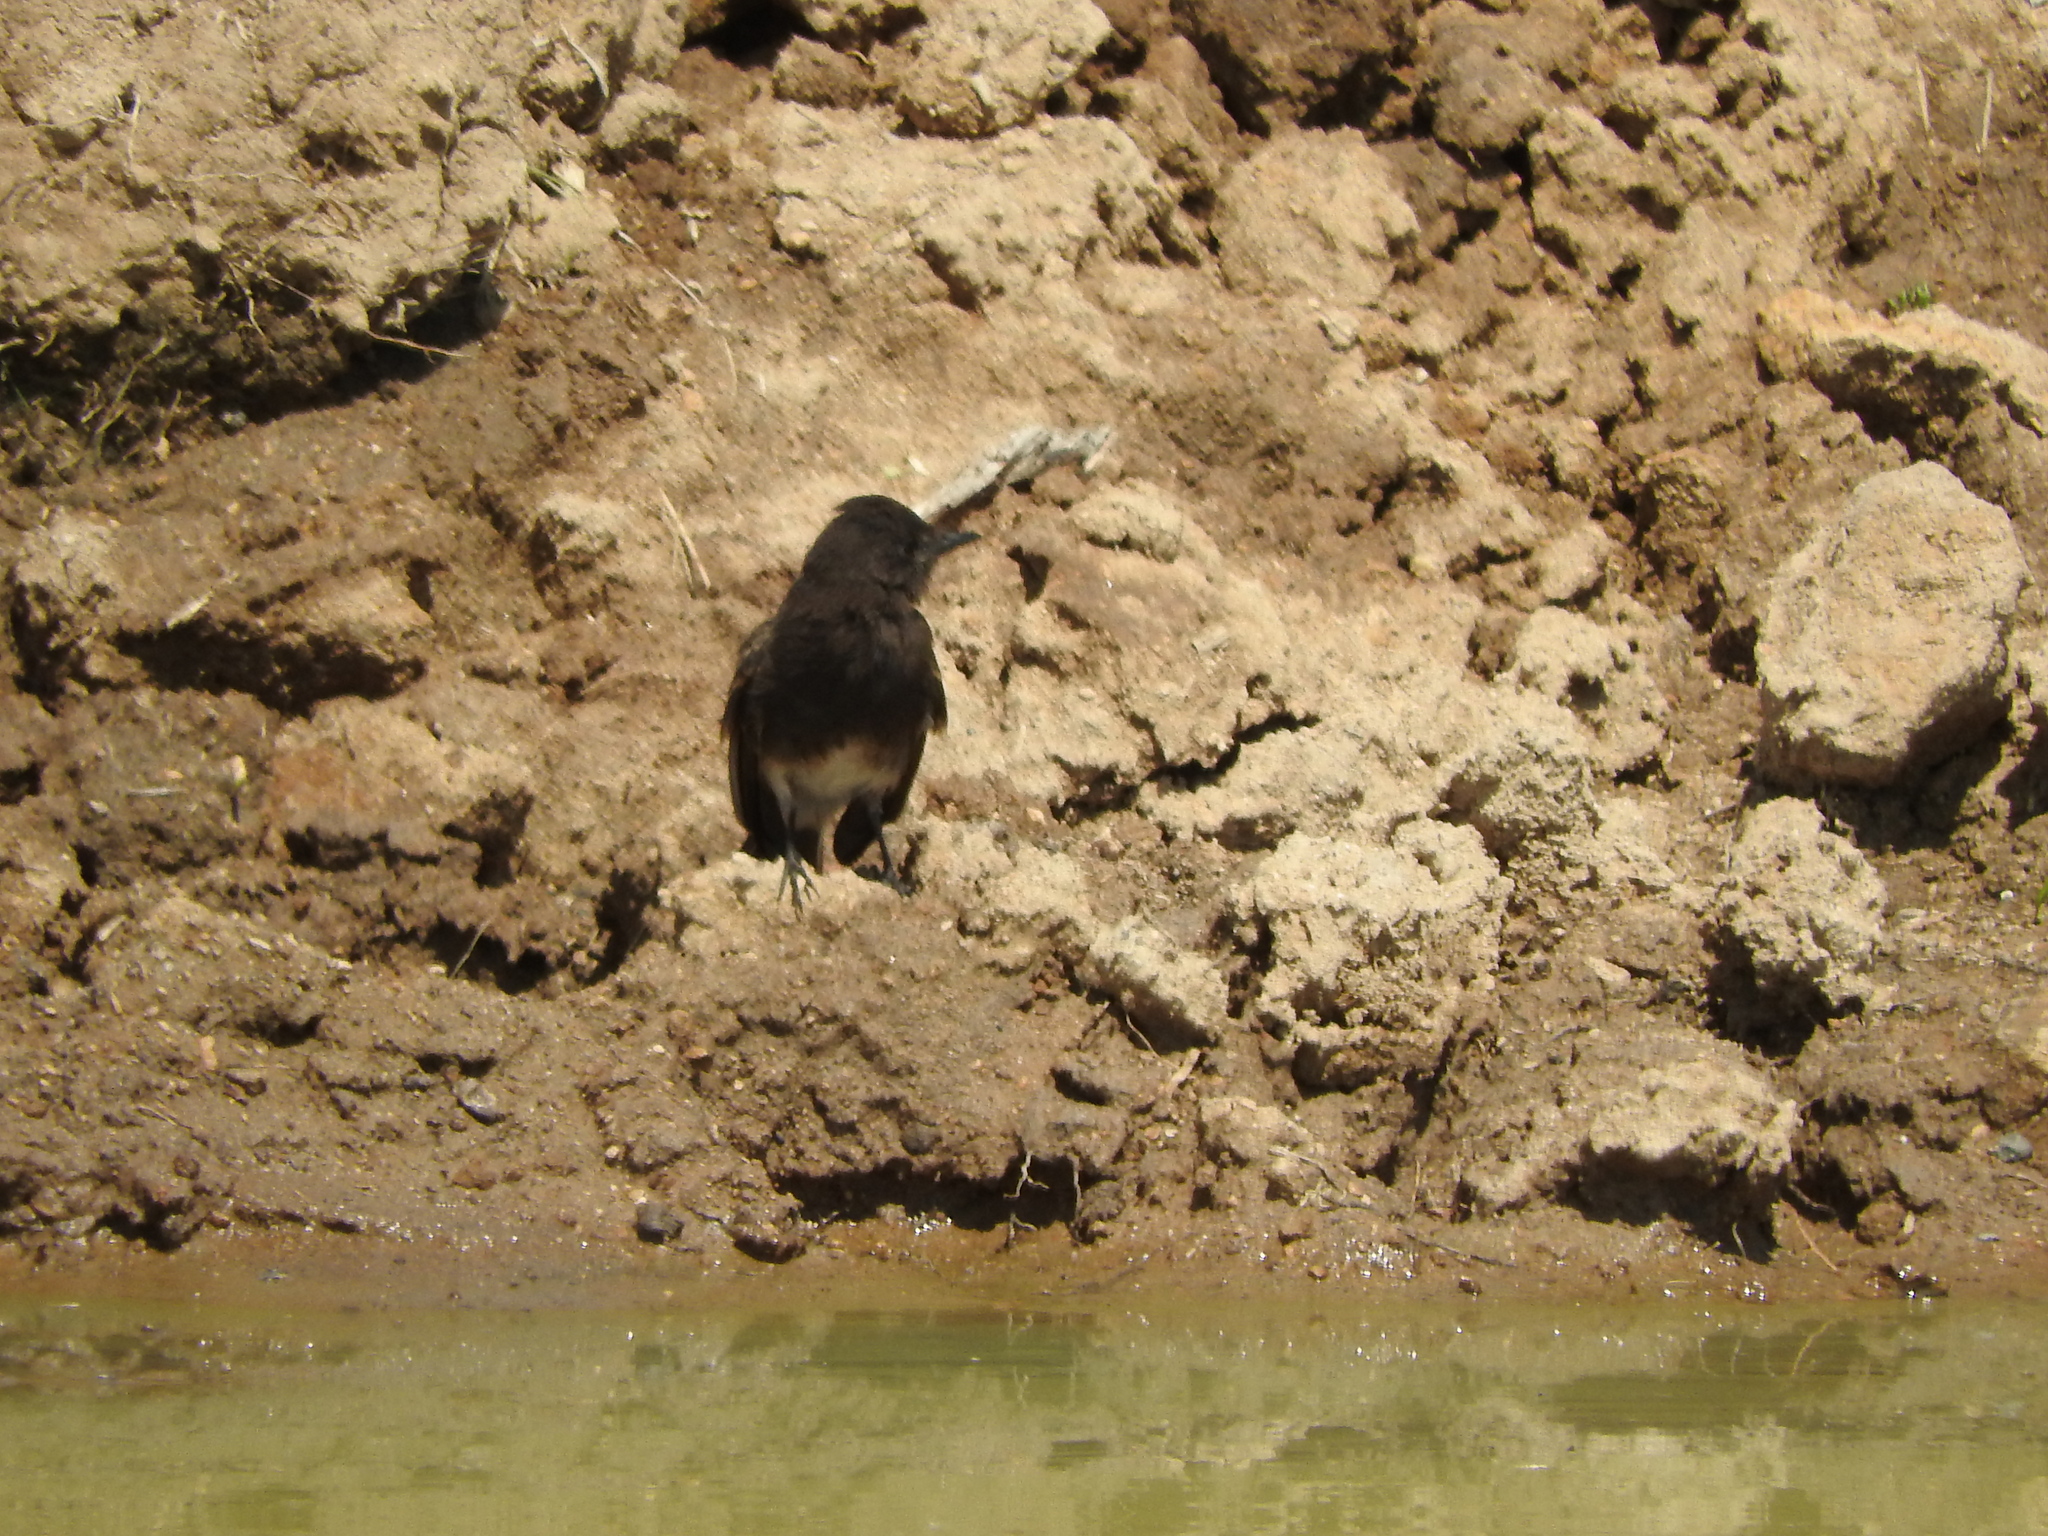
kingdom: Animalia
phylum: Chordata
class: Aves
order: Passeriformes
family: Tyrannidae
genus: Sayornis
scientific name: Sayornis nigricans
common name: Black phoebe
